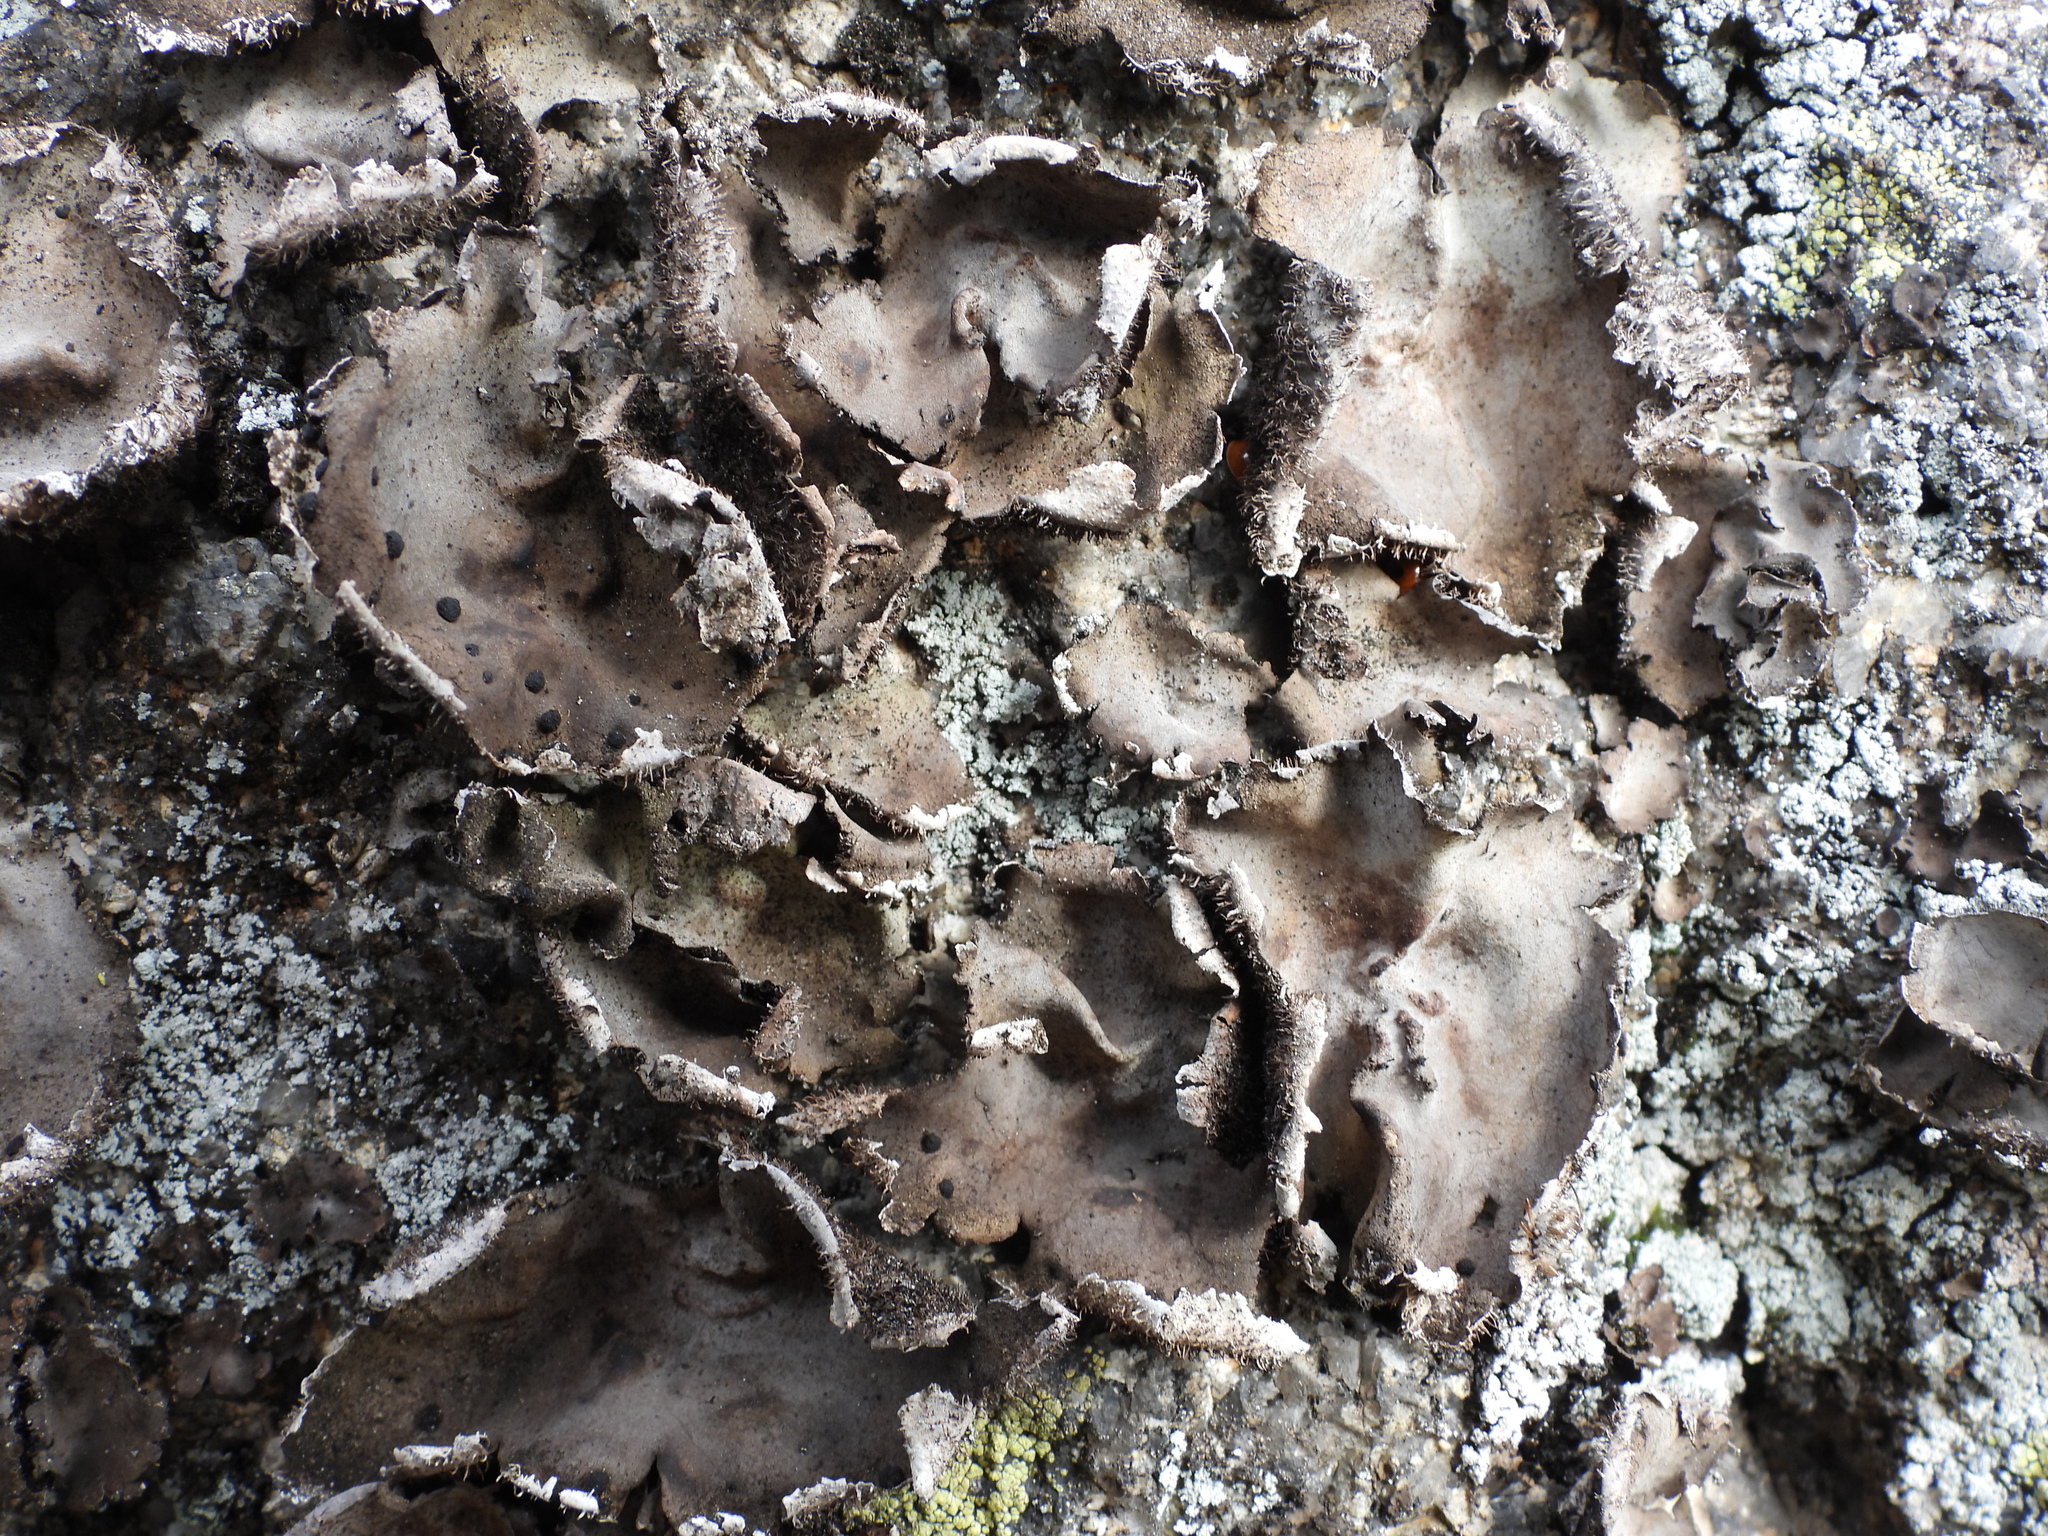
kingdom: Fungi
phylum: Ascomycota
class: Lecanoromycetes
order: Umbilicariales
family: Umbilicariaceae
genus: Umbilicaria
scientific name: Umbilicaria hirsuta
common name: Granulating rocktripe lichen
